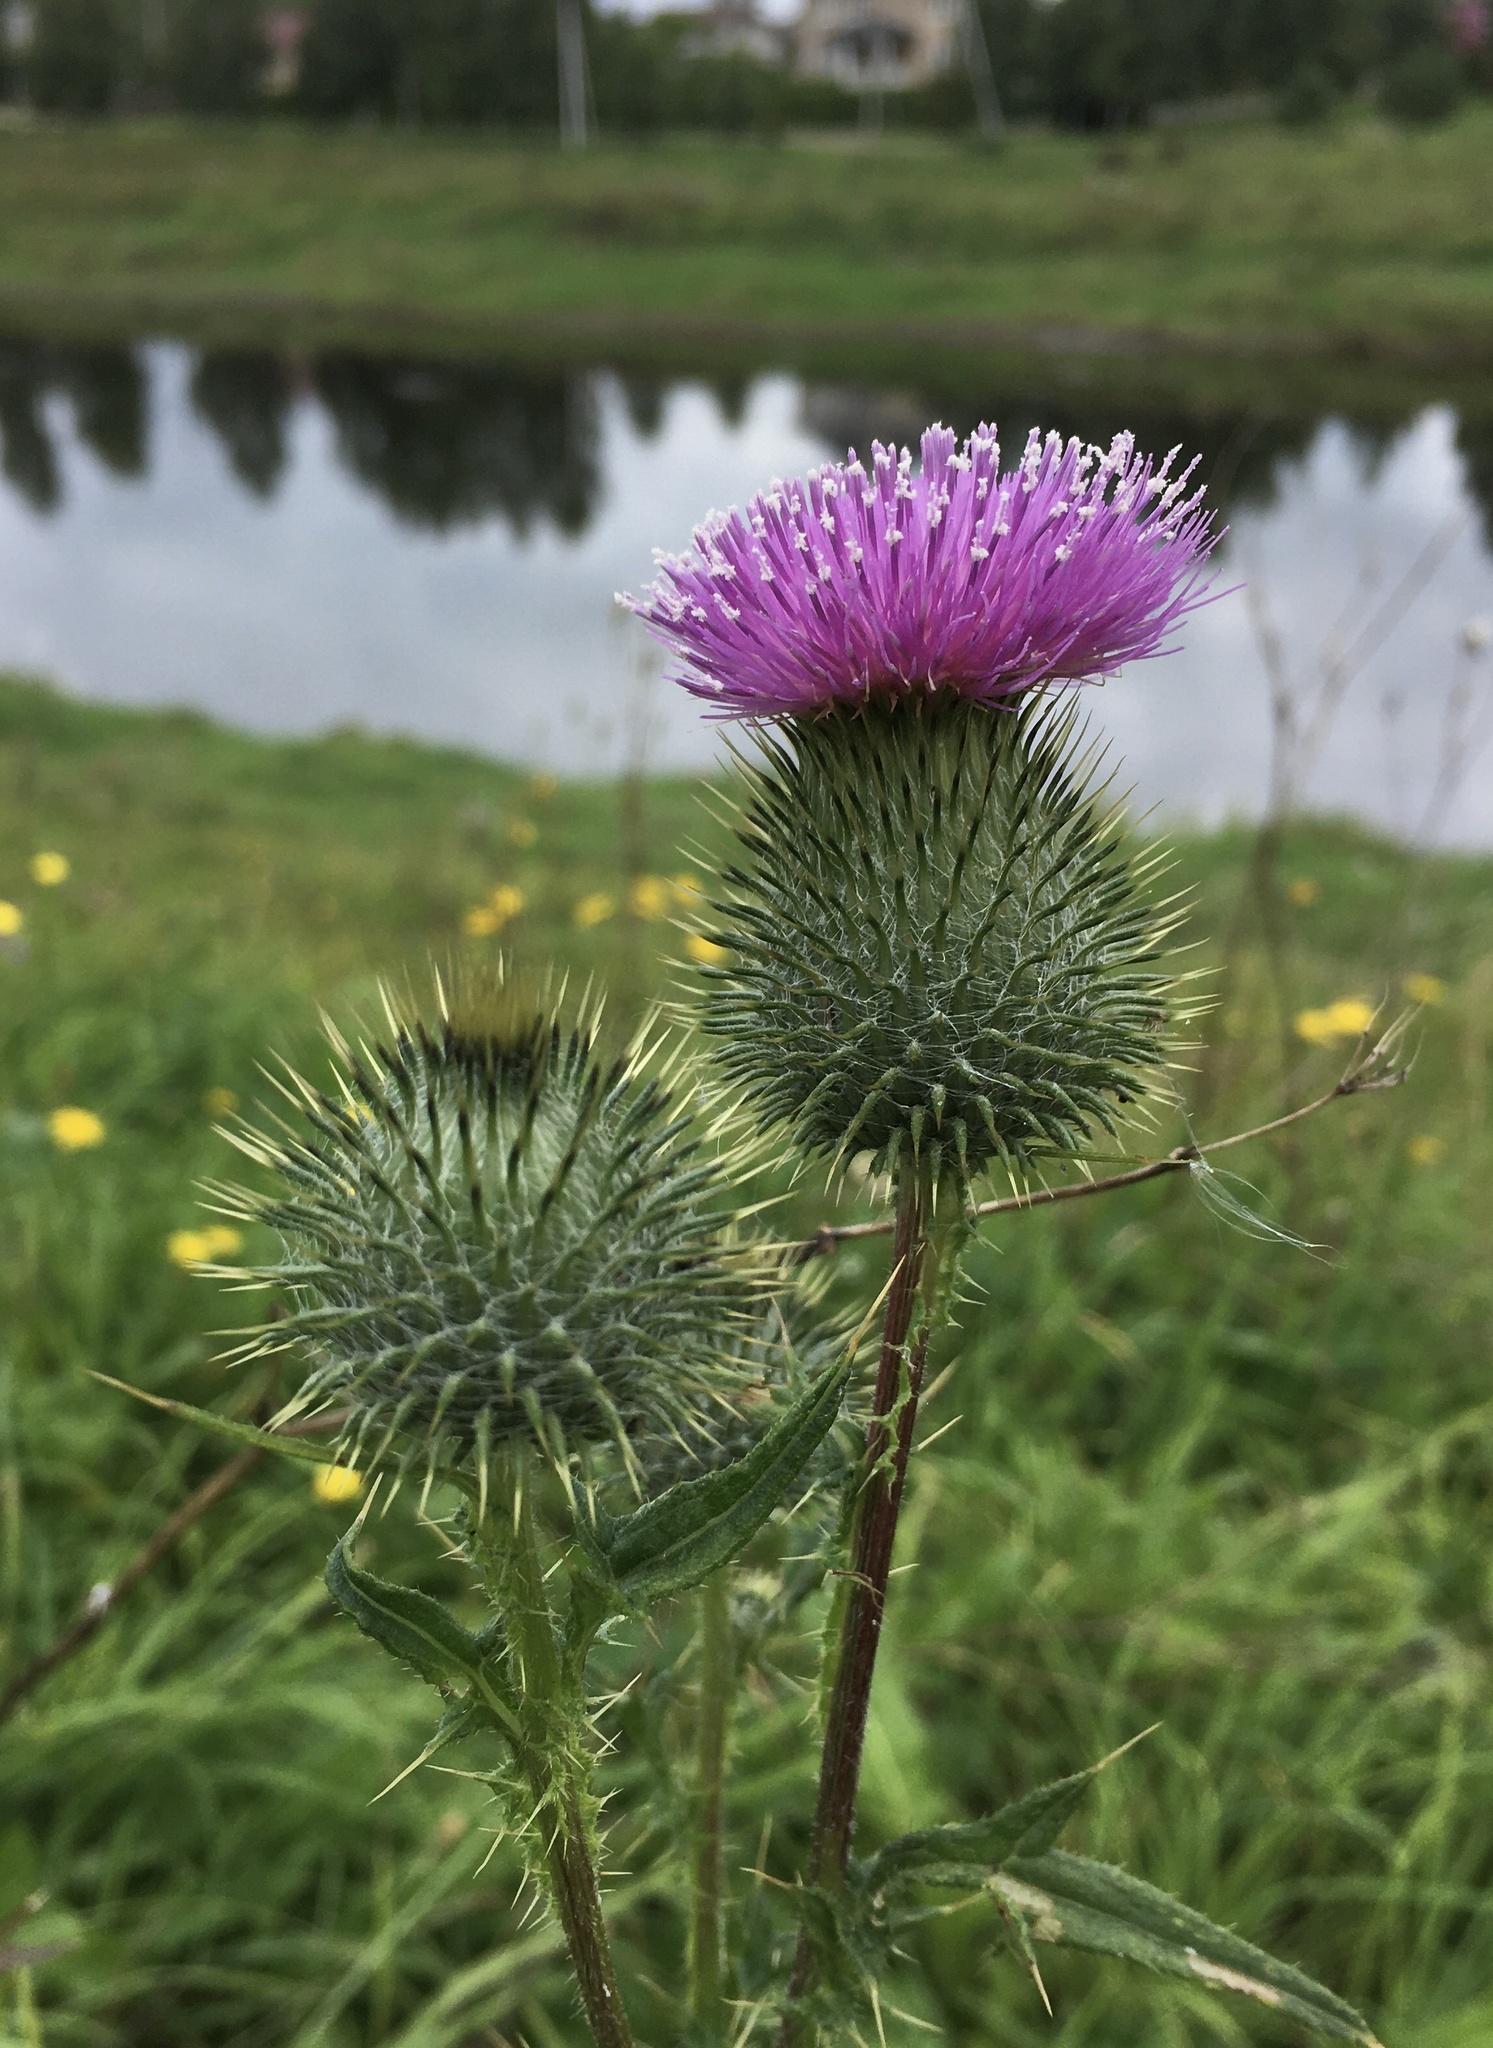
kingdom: Plantae
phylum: Tracheophyta
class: Magnoliopsida
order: Asterales
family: Asteraceae
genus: Cirsium
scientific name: Cirsium vulgare
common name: Bull thistle
